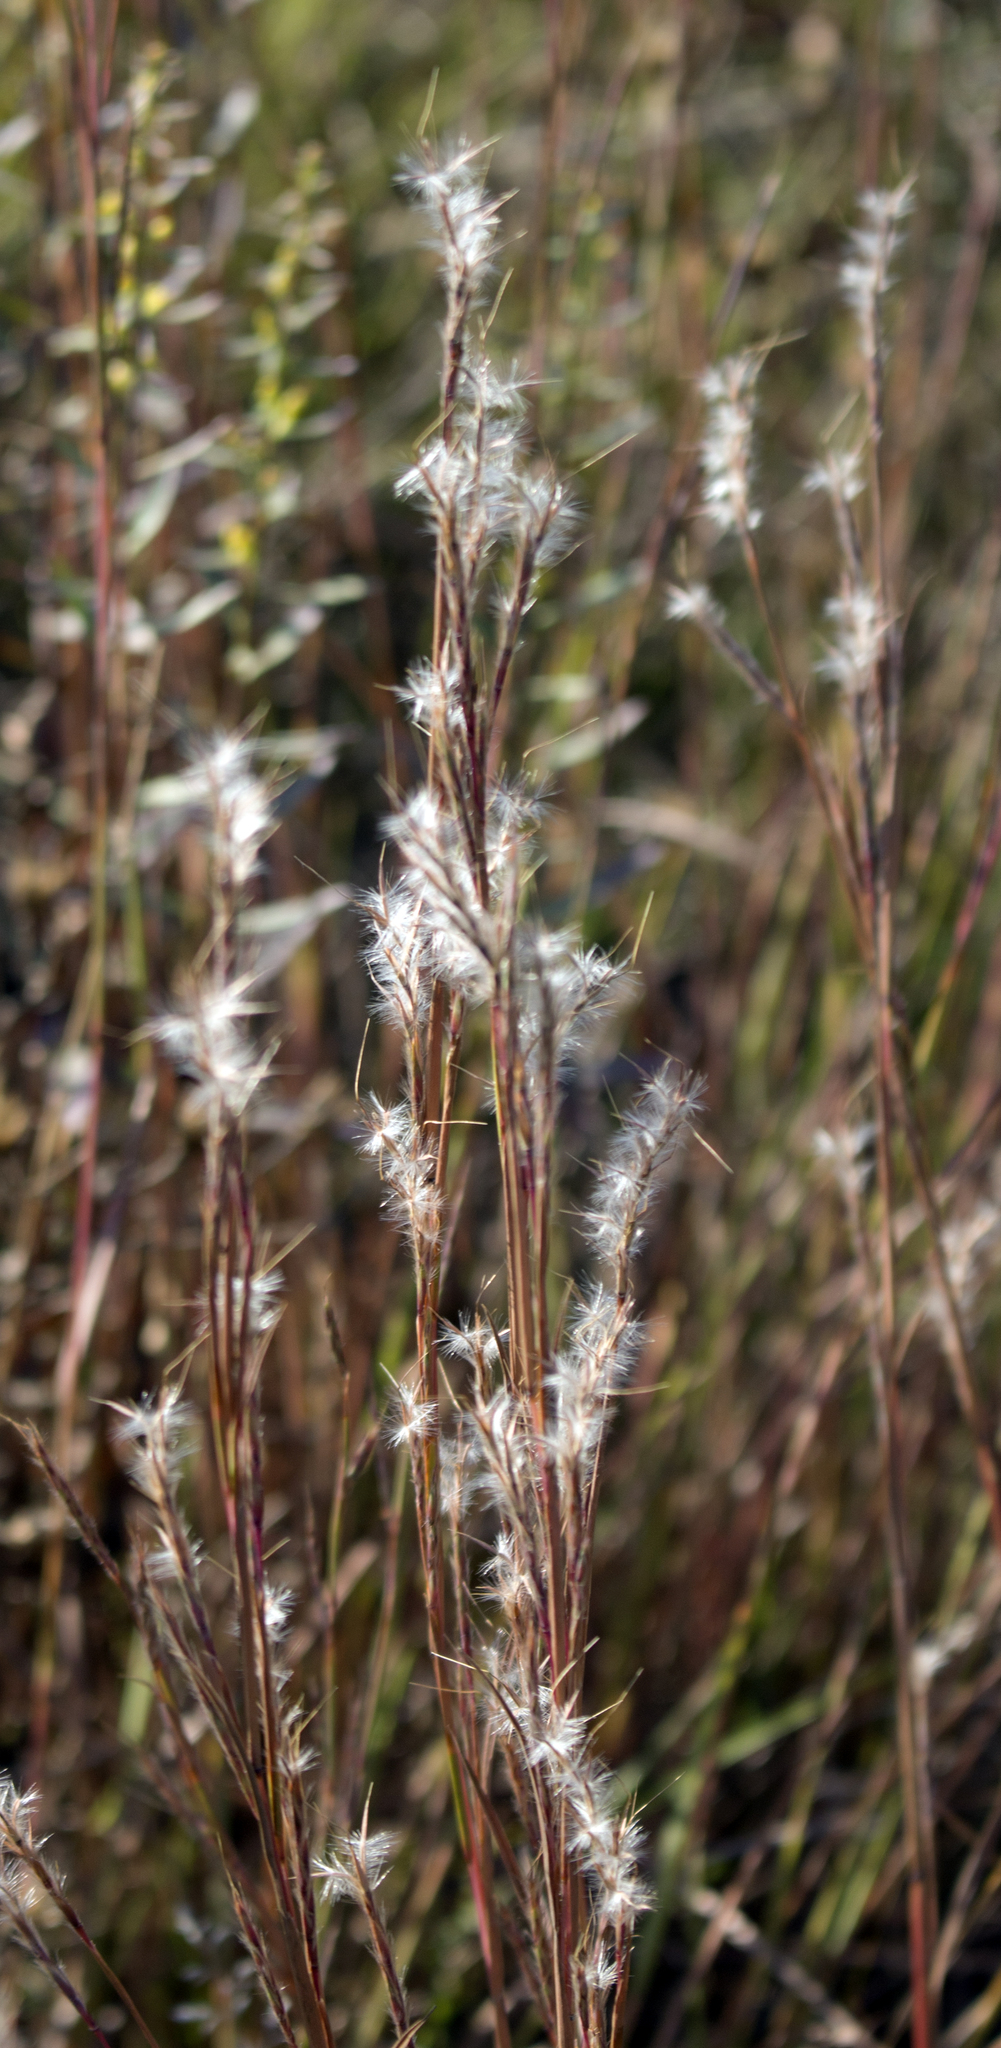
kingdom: Plantae
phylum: Tracheophyta
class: Liliopsida
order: Poales
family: Poaceae
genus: Schizachyrium
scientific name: Schizachyrium scoparium
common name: Little bluestem
